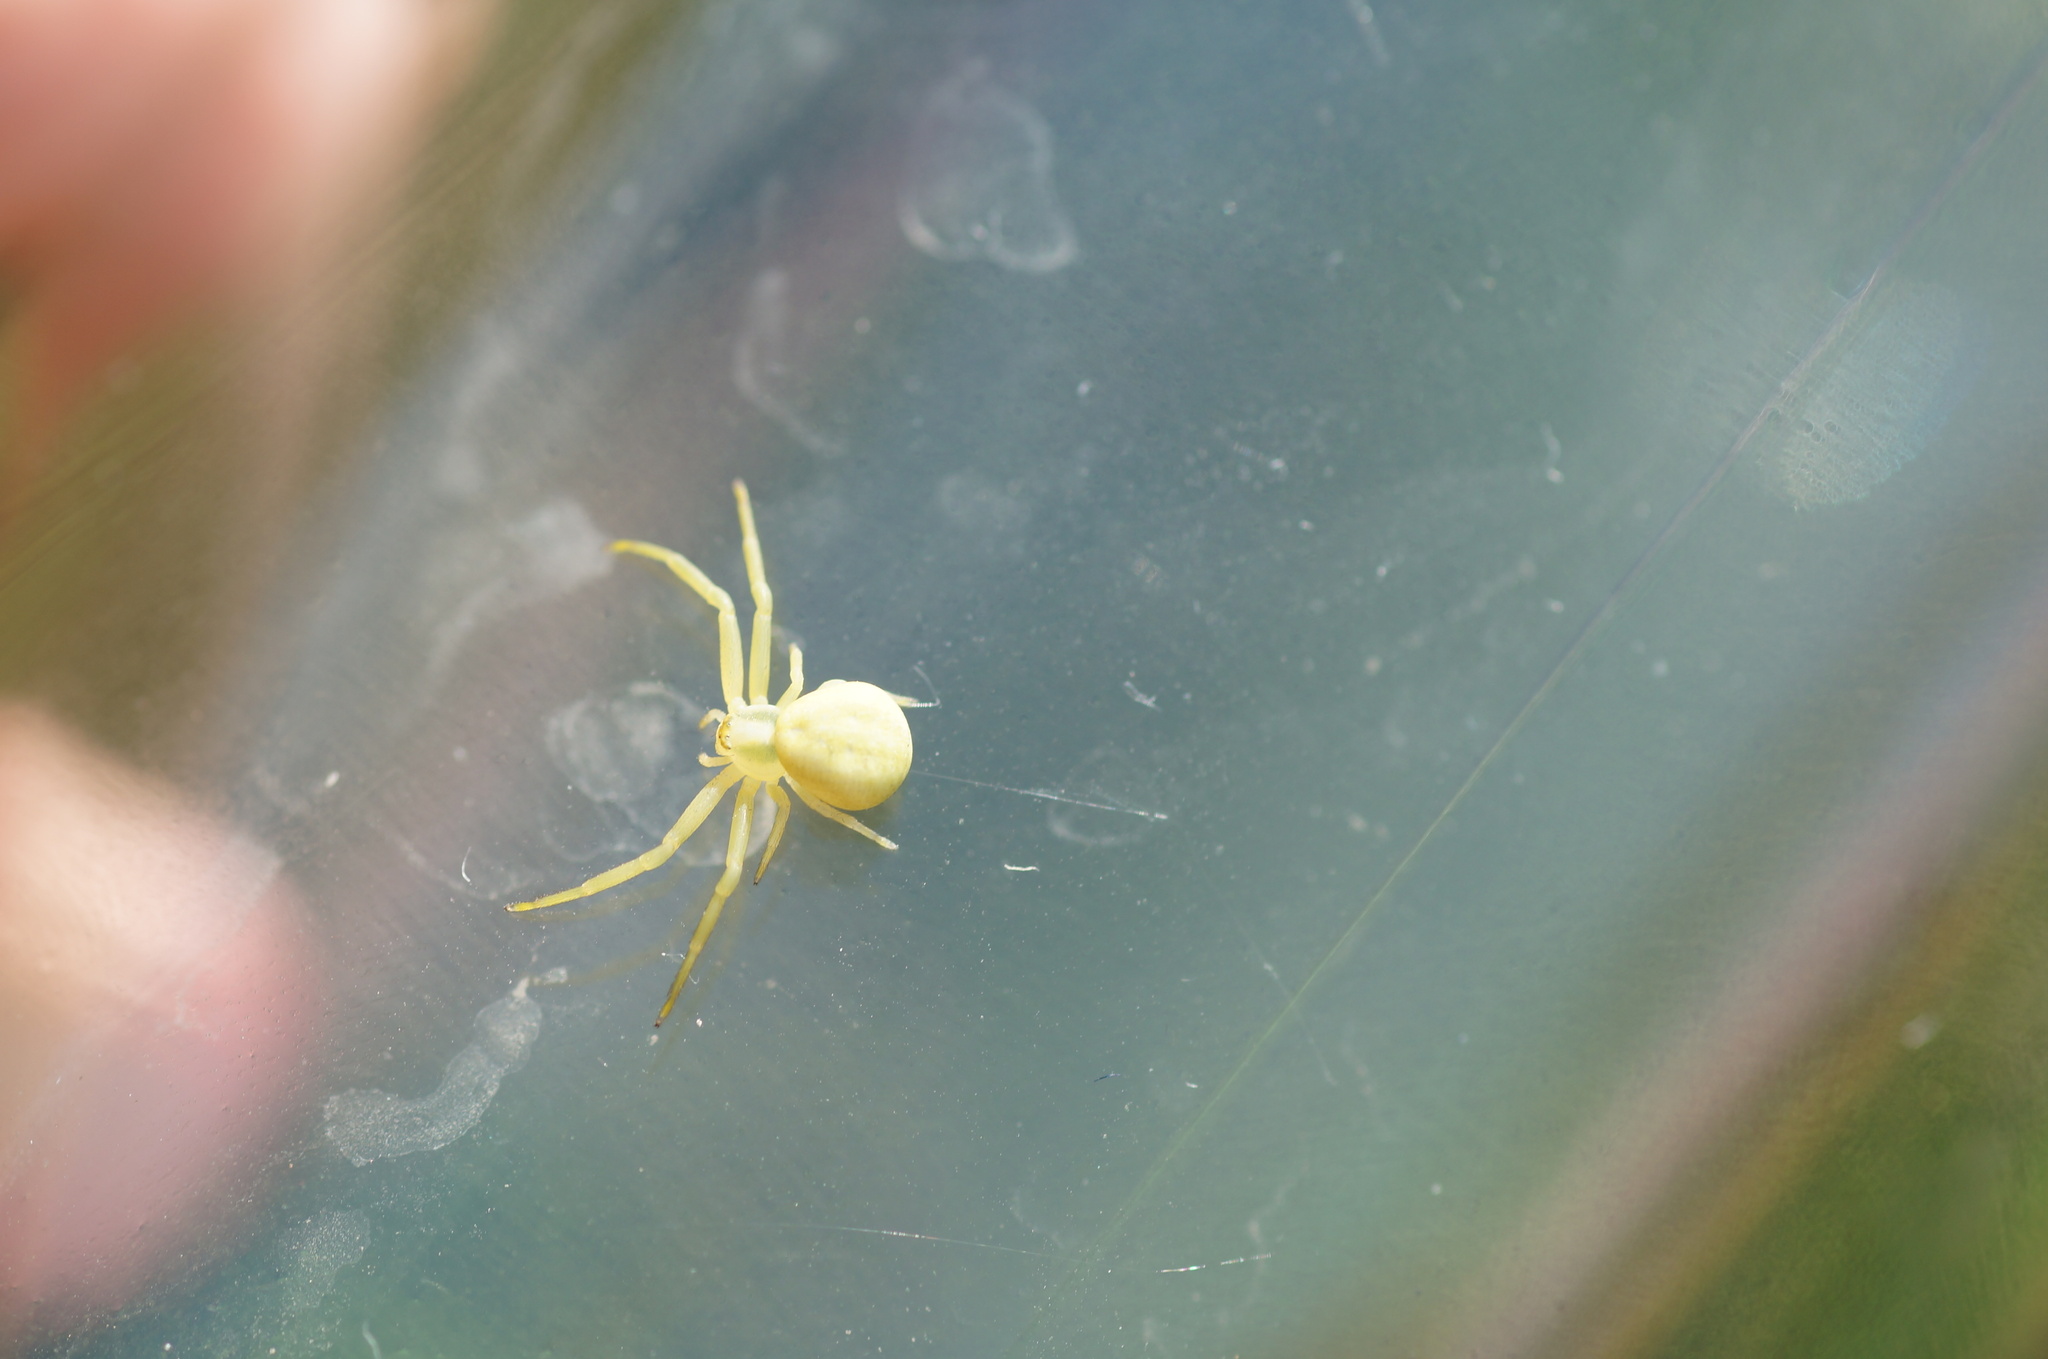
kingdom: Animalia
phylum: Arthropoda
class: Arachnida
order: Araneae
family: Thomisidae
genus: Misumena
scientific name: Misumena vatia
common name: Goldenrod crab spider
